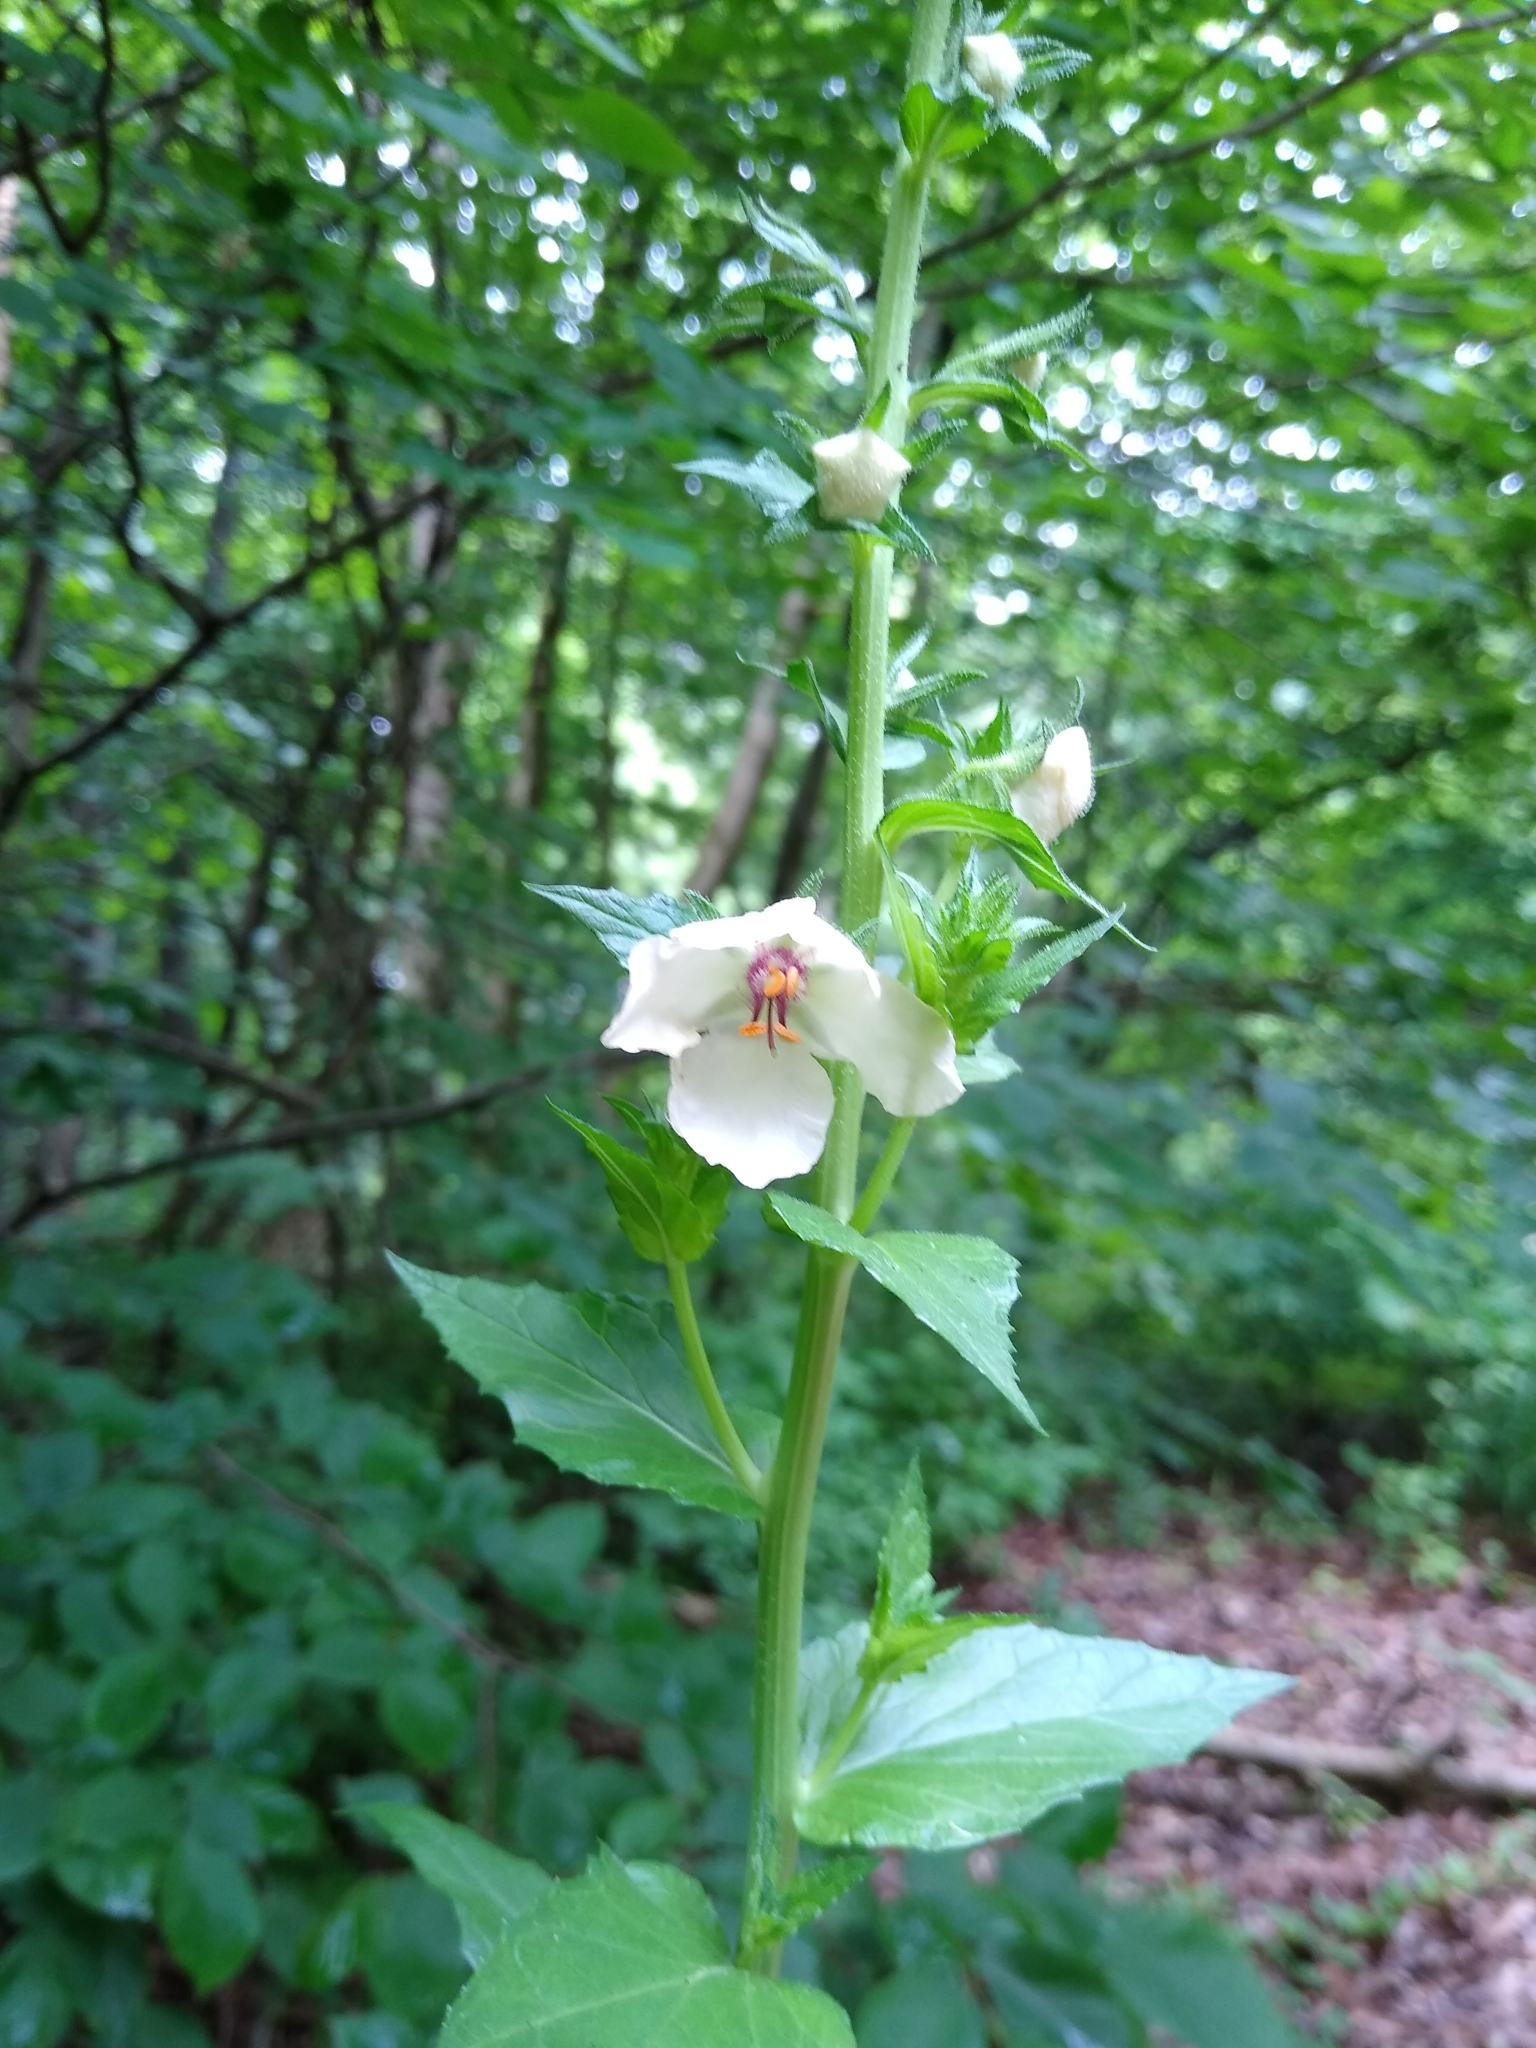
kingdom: Plantae
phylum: Tracheophyta
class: Magnoliopsida
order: Lamiales
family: Scrophulariaceae
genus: Verbascum
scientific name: Verbascum blattaria
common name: Moth mullein
